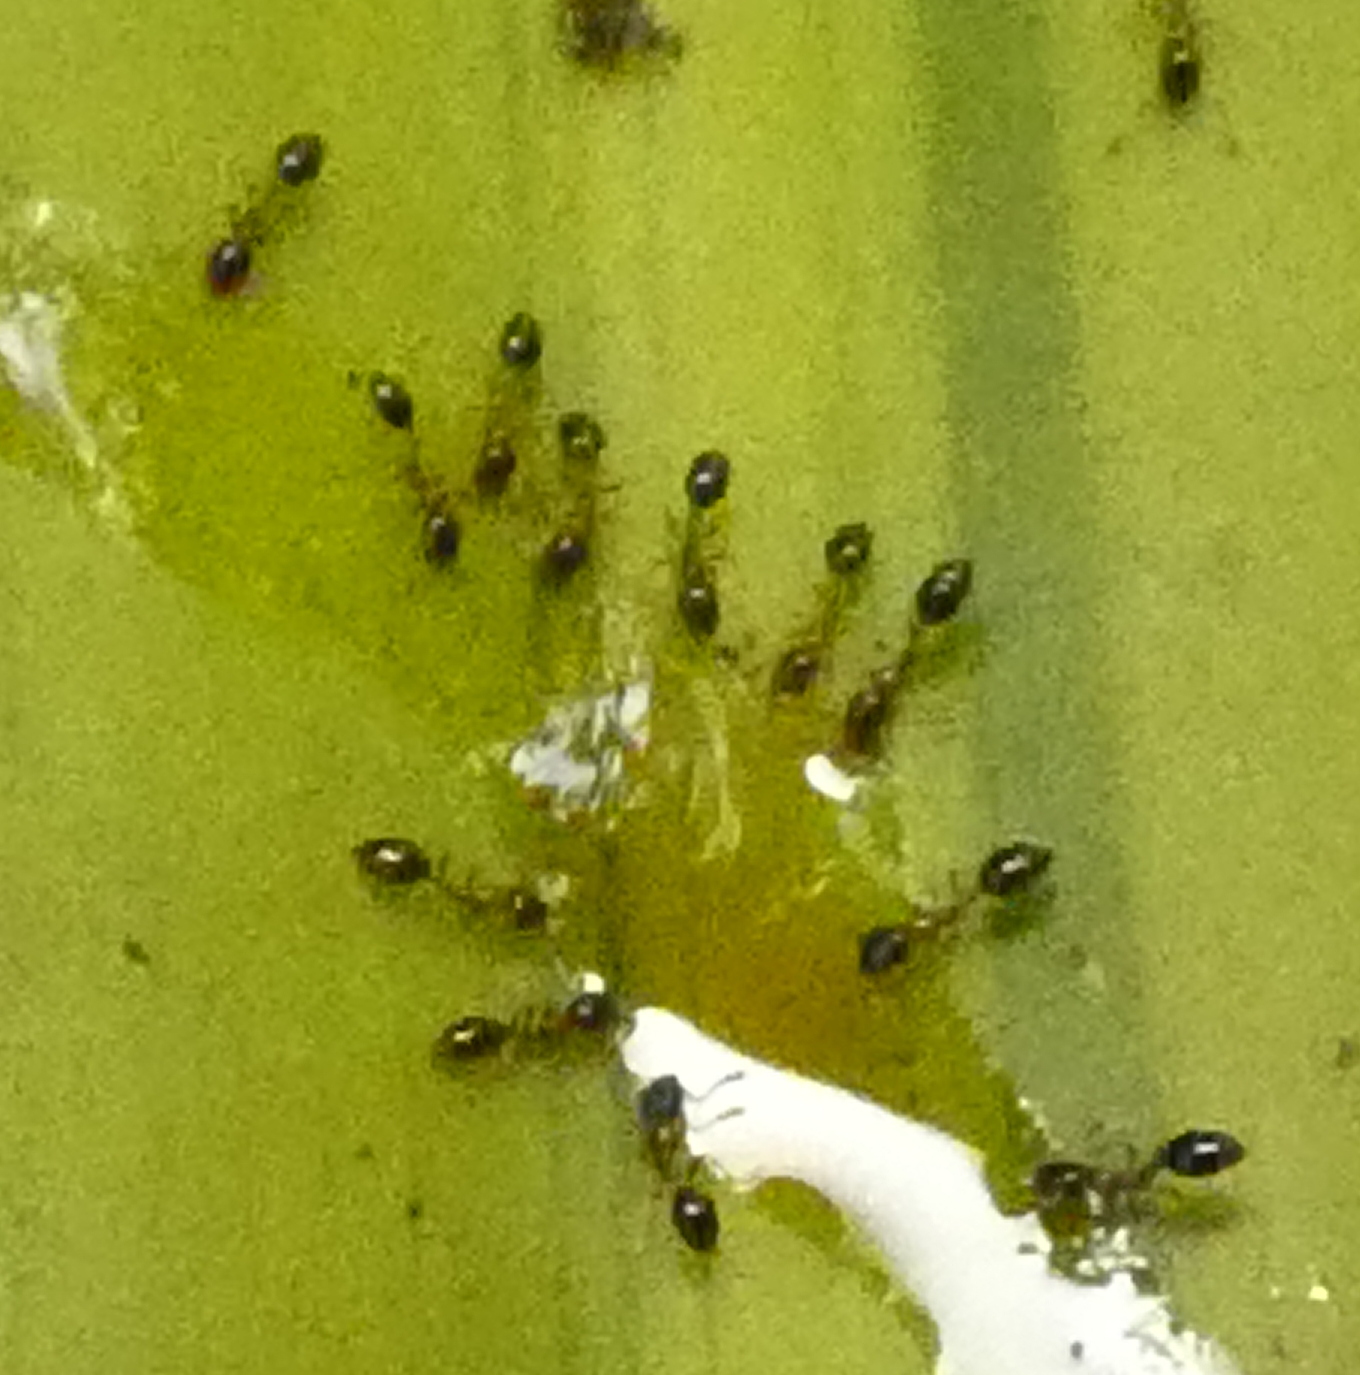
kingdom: Animalia
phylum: Arthropoda
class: Insecta
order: Hymenoptera
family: Formicidae
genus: Monomorium
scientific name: Monomorium floricola
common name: Bicolored trailing ant
